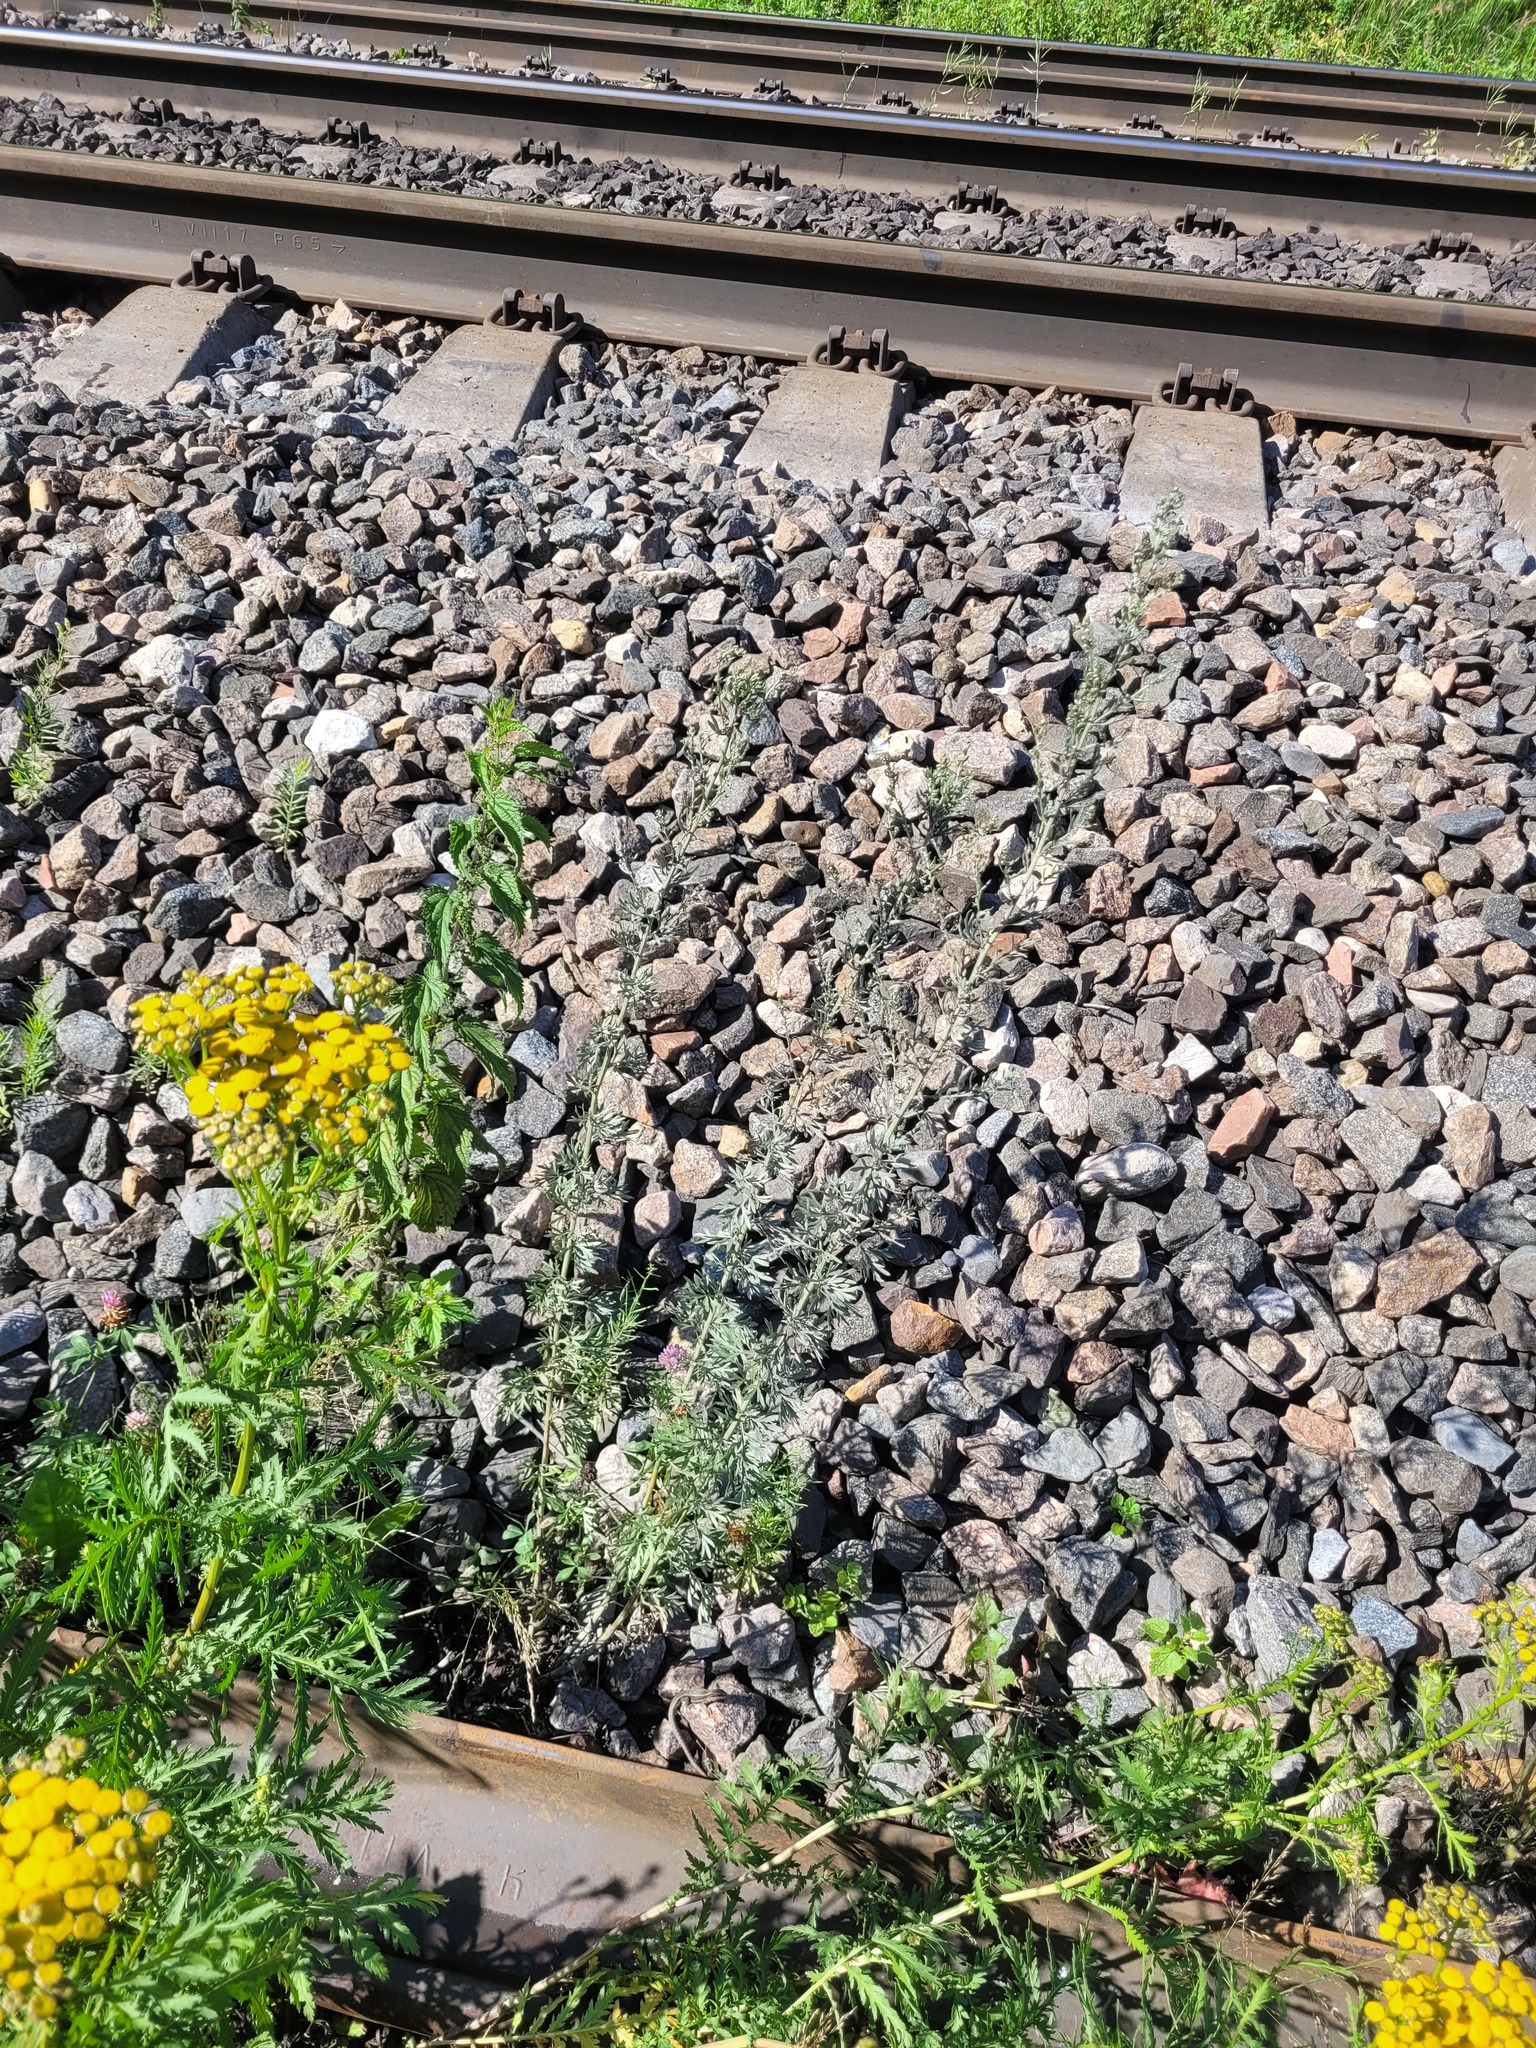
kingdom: Plantae
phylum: Tracheophyta
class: Magnoliopsida
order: Asterales
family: Asteraceae
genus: Artemisia
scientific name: Artemisia absinthium
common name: Wormwood
